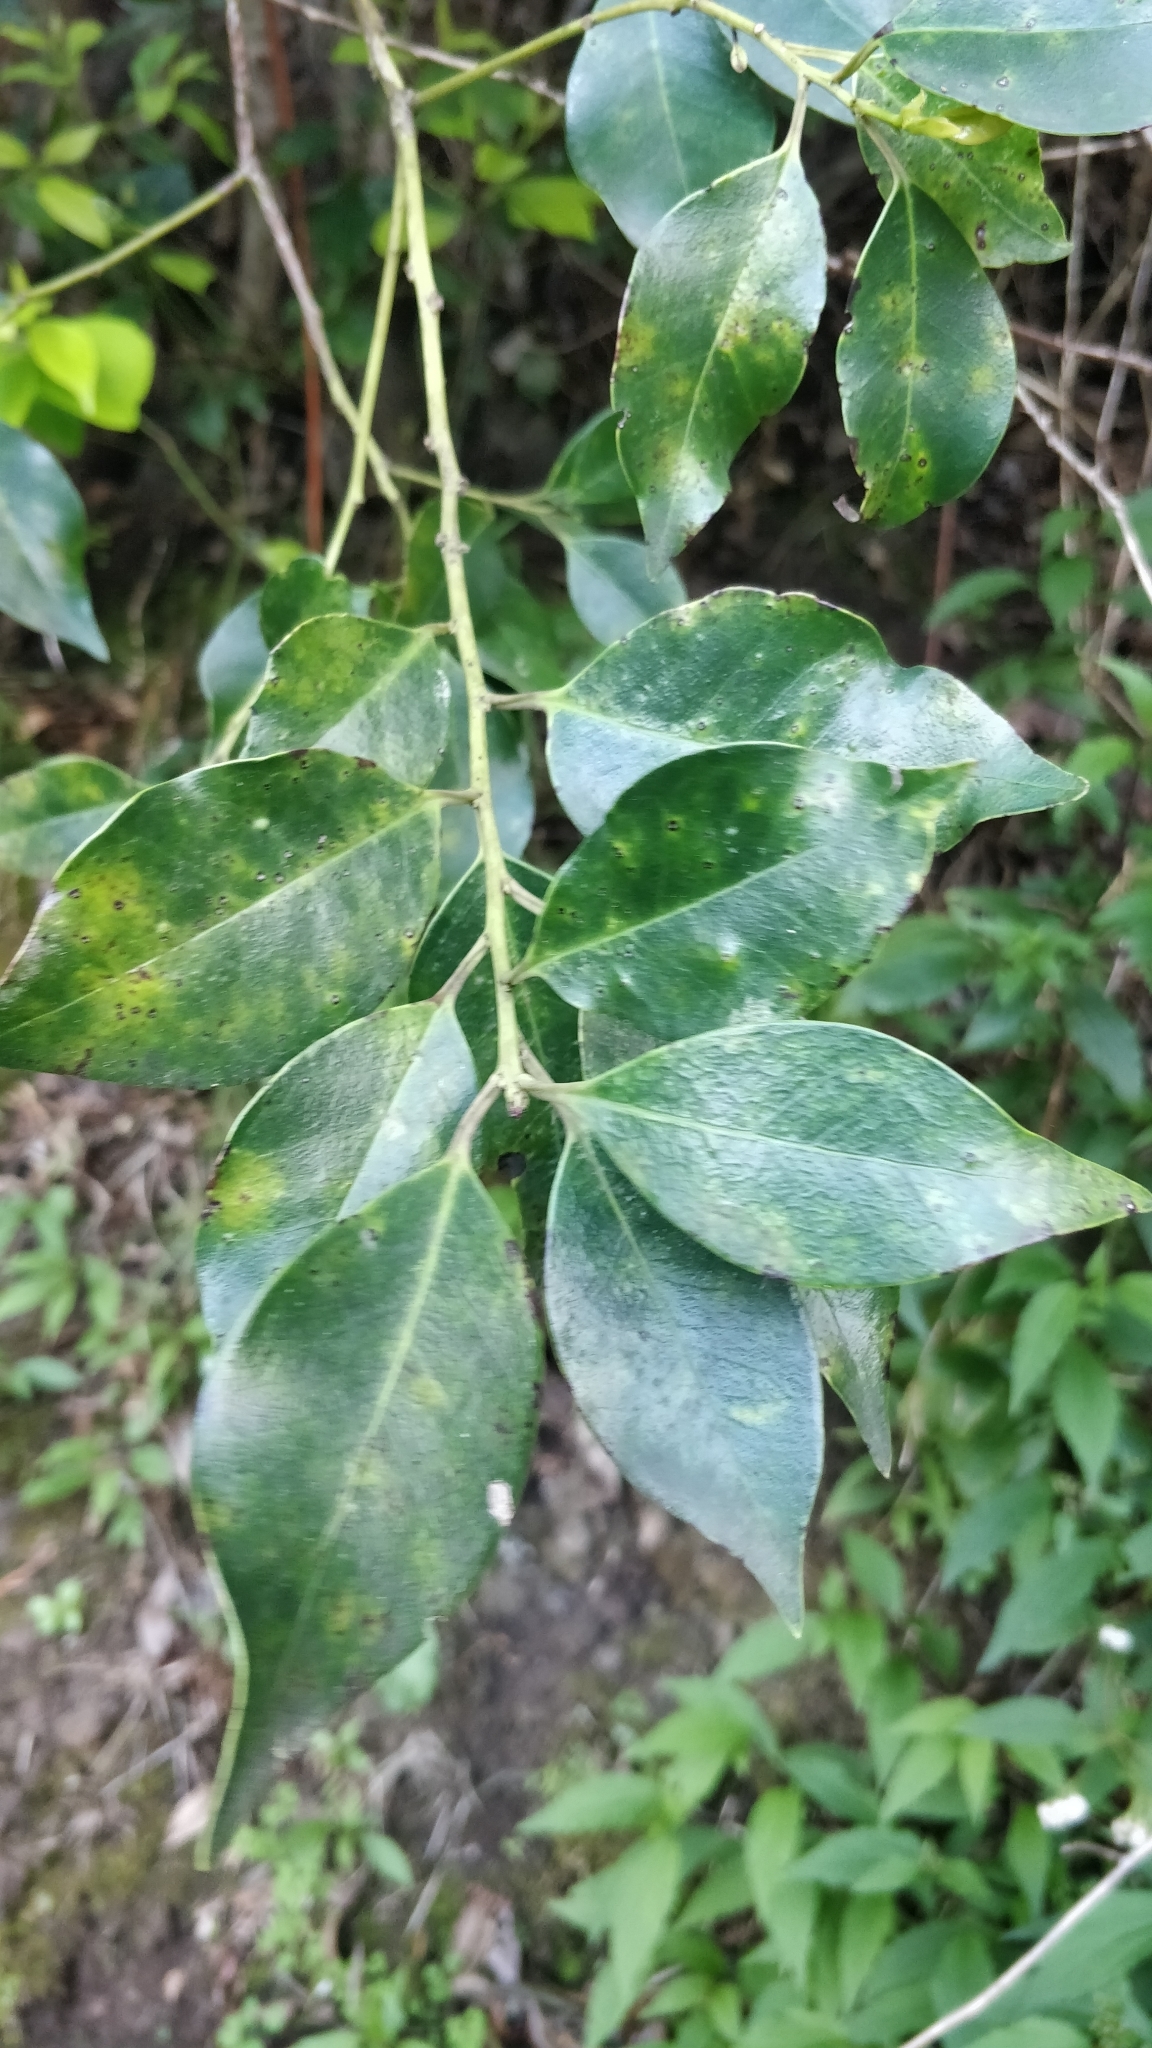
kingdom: Plantae
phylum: Tracheophyta
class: Magnoliopsida
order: Aquifoliales
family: Aquifoliaceae
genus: Ilex
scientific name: Ilex canariensis
